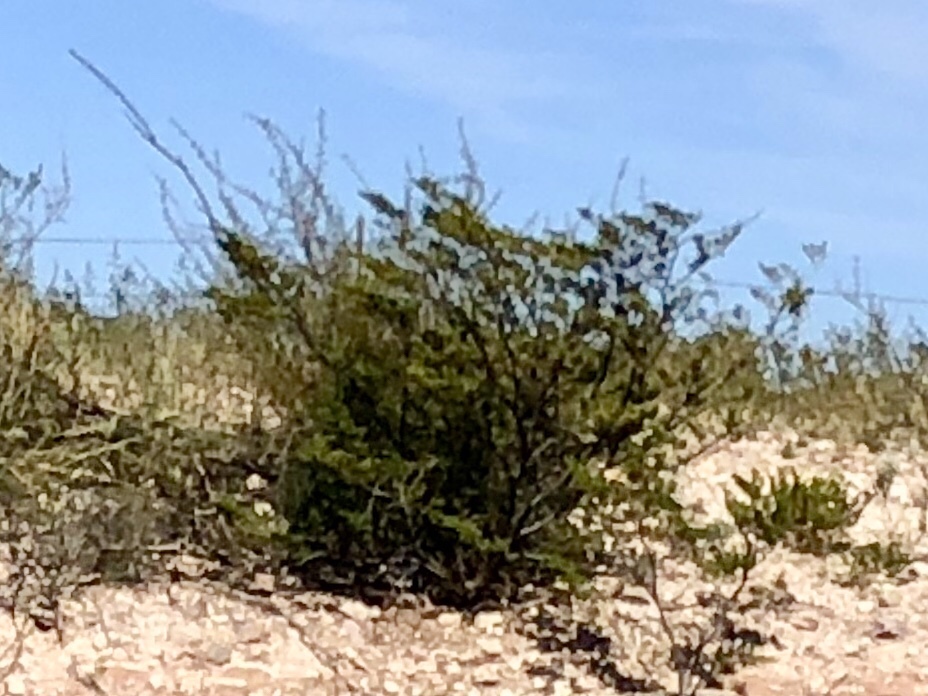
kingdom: Plantae
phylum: Tracheophyta
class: Magnoliopsida
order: Zygophyllales
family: Zygophyllaceae
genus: Larrea
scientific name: Larrea tridentata
